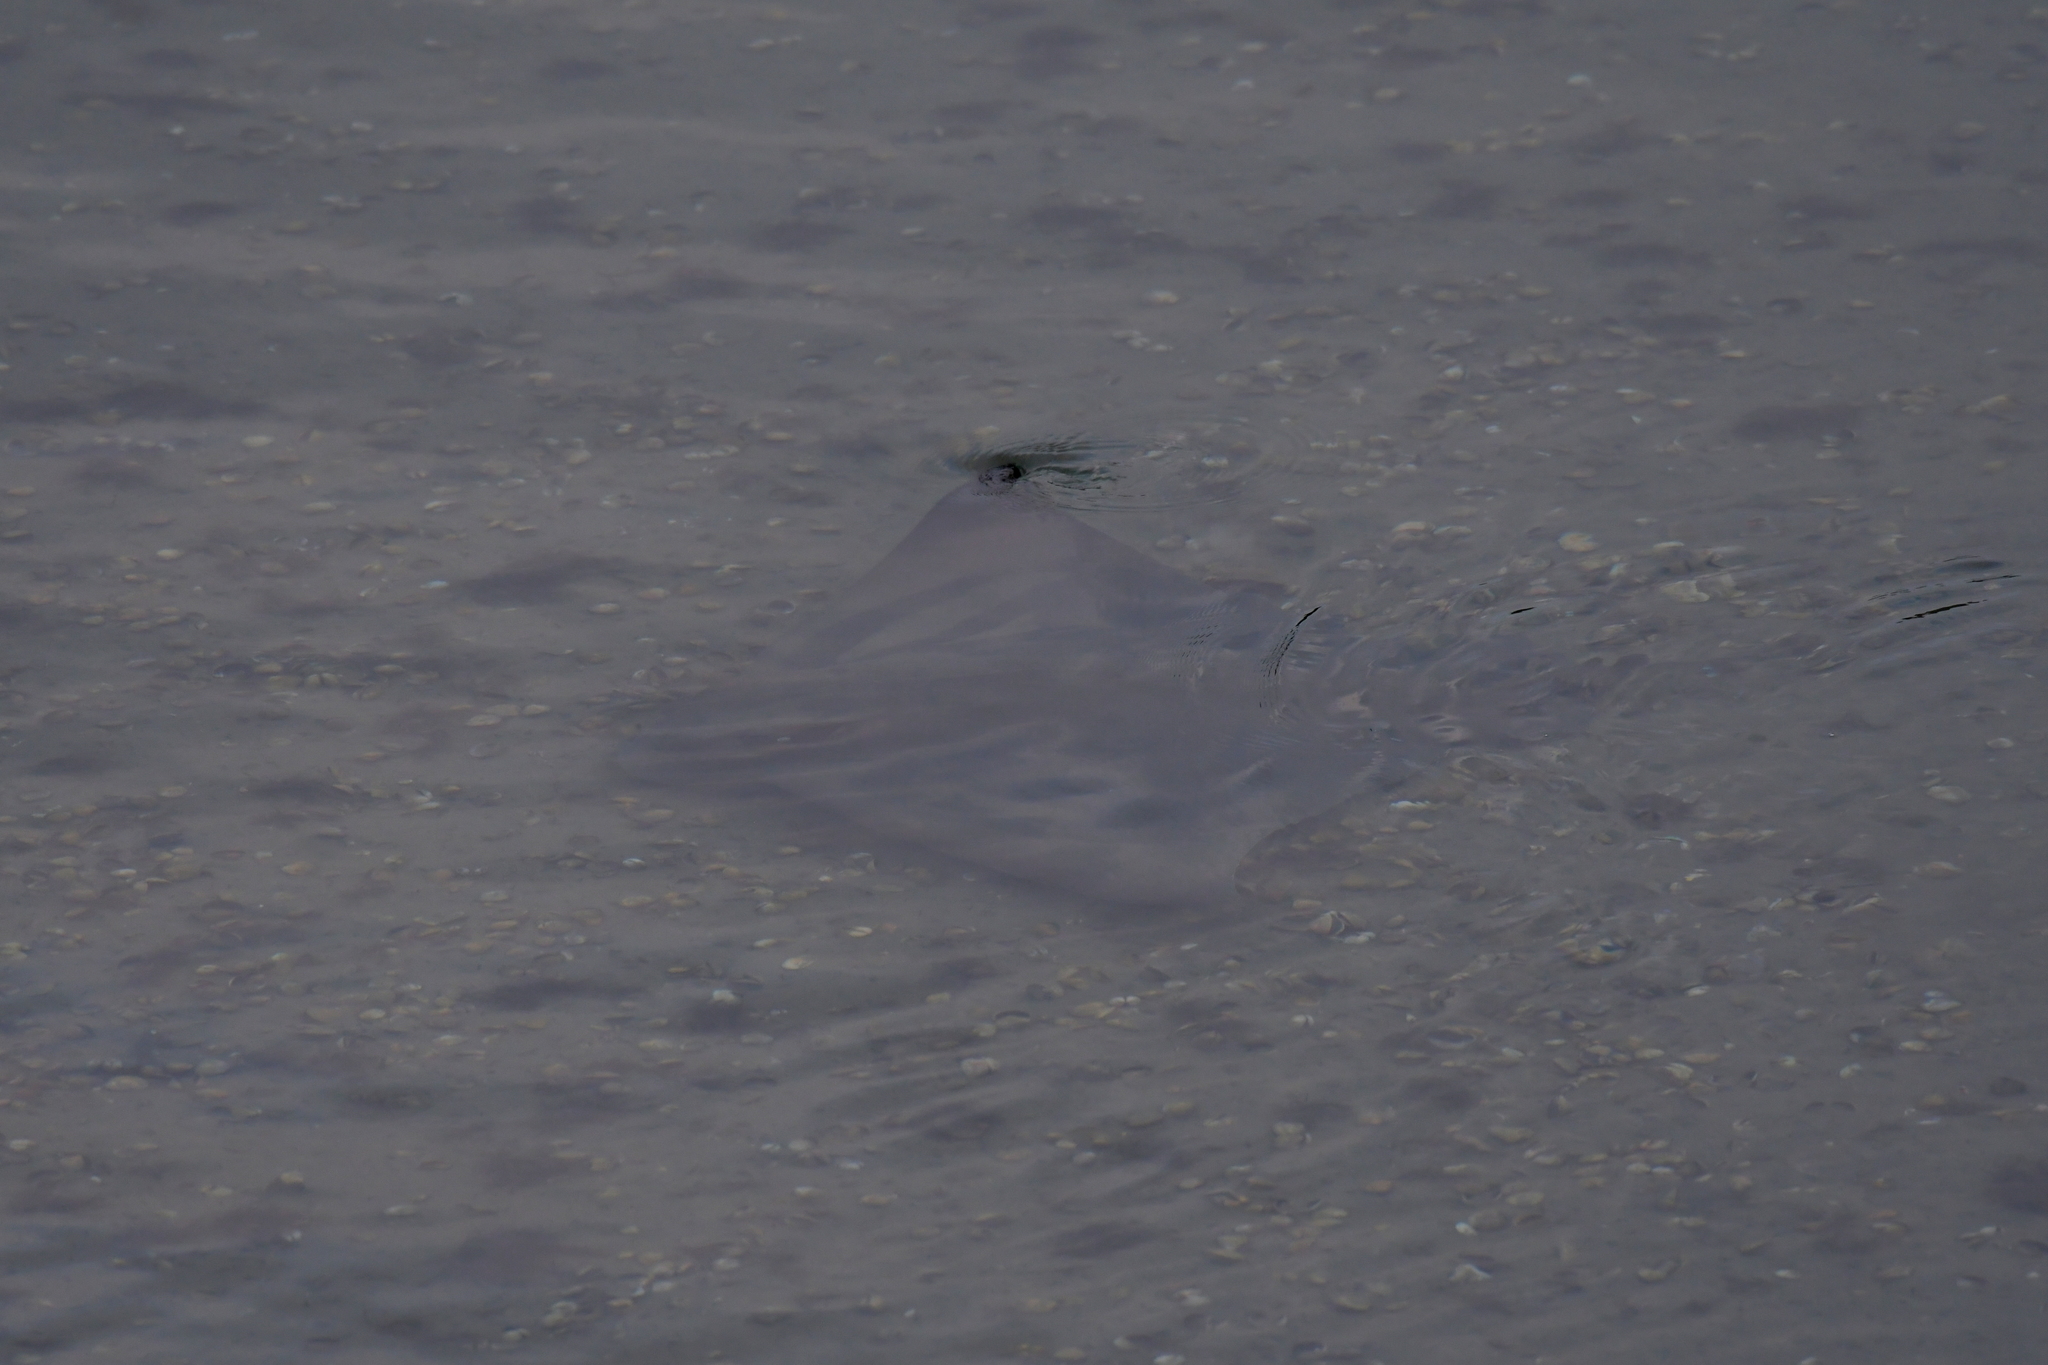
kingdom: Animalia
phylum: Chordata
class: Elasmobranchii
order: Myliobatiformes
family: Myliobatidae
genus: Myliobatis
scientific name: Myliobatis tenuicaudatus
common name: Eagle ray
